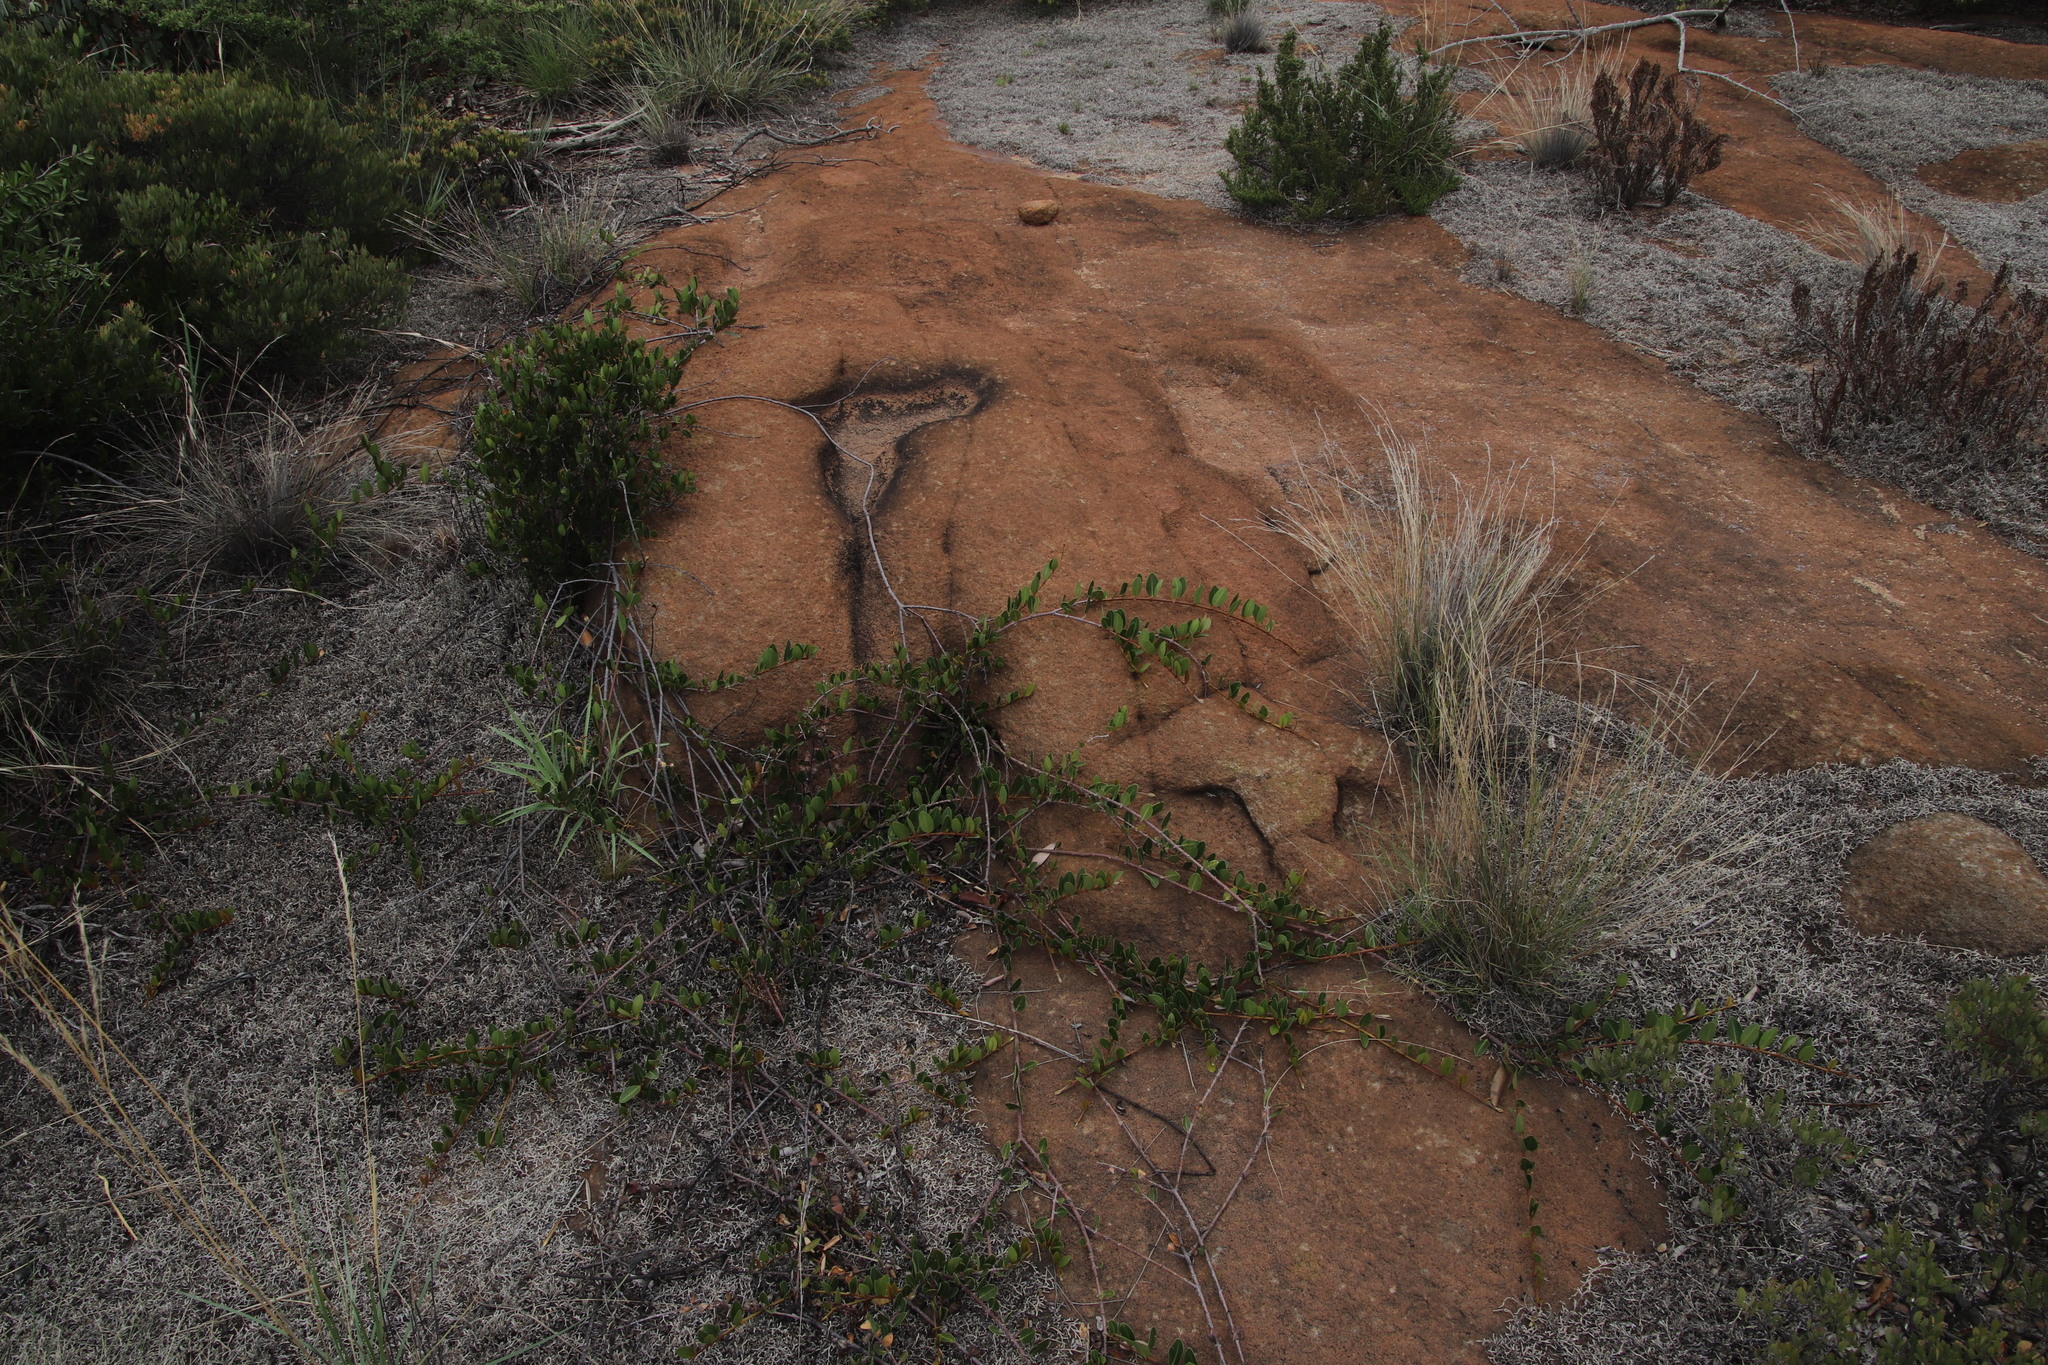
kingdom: Plantae
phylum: Tracheophyta
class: Magnoliopsida
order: Gentianales
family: Apocynaceae
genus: Ancylobothrys
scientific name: Ancylobothrys capensis
